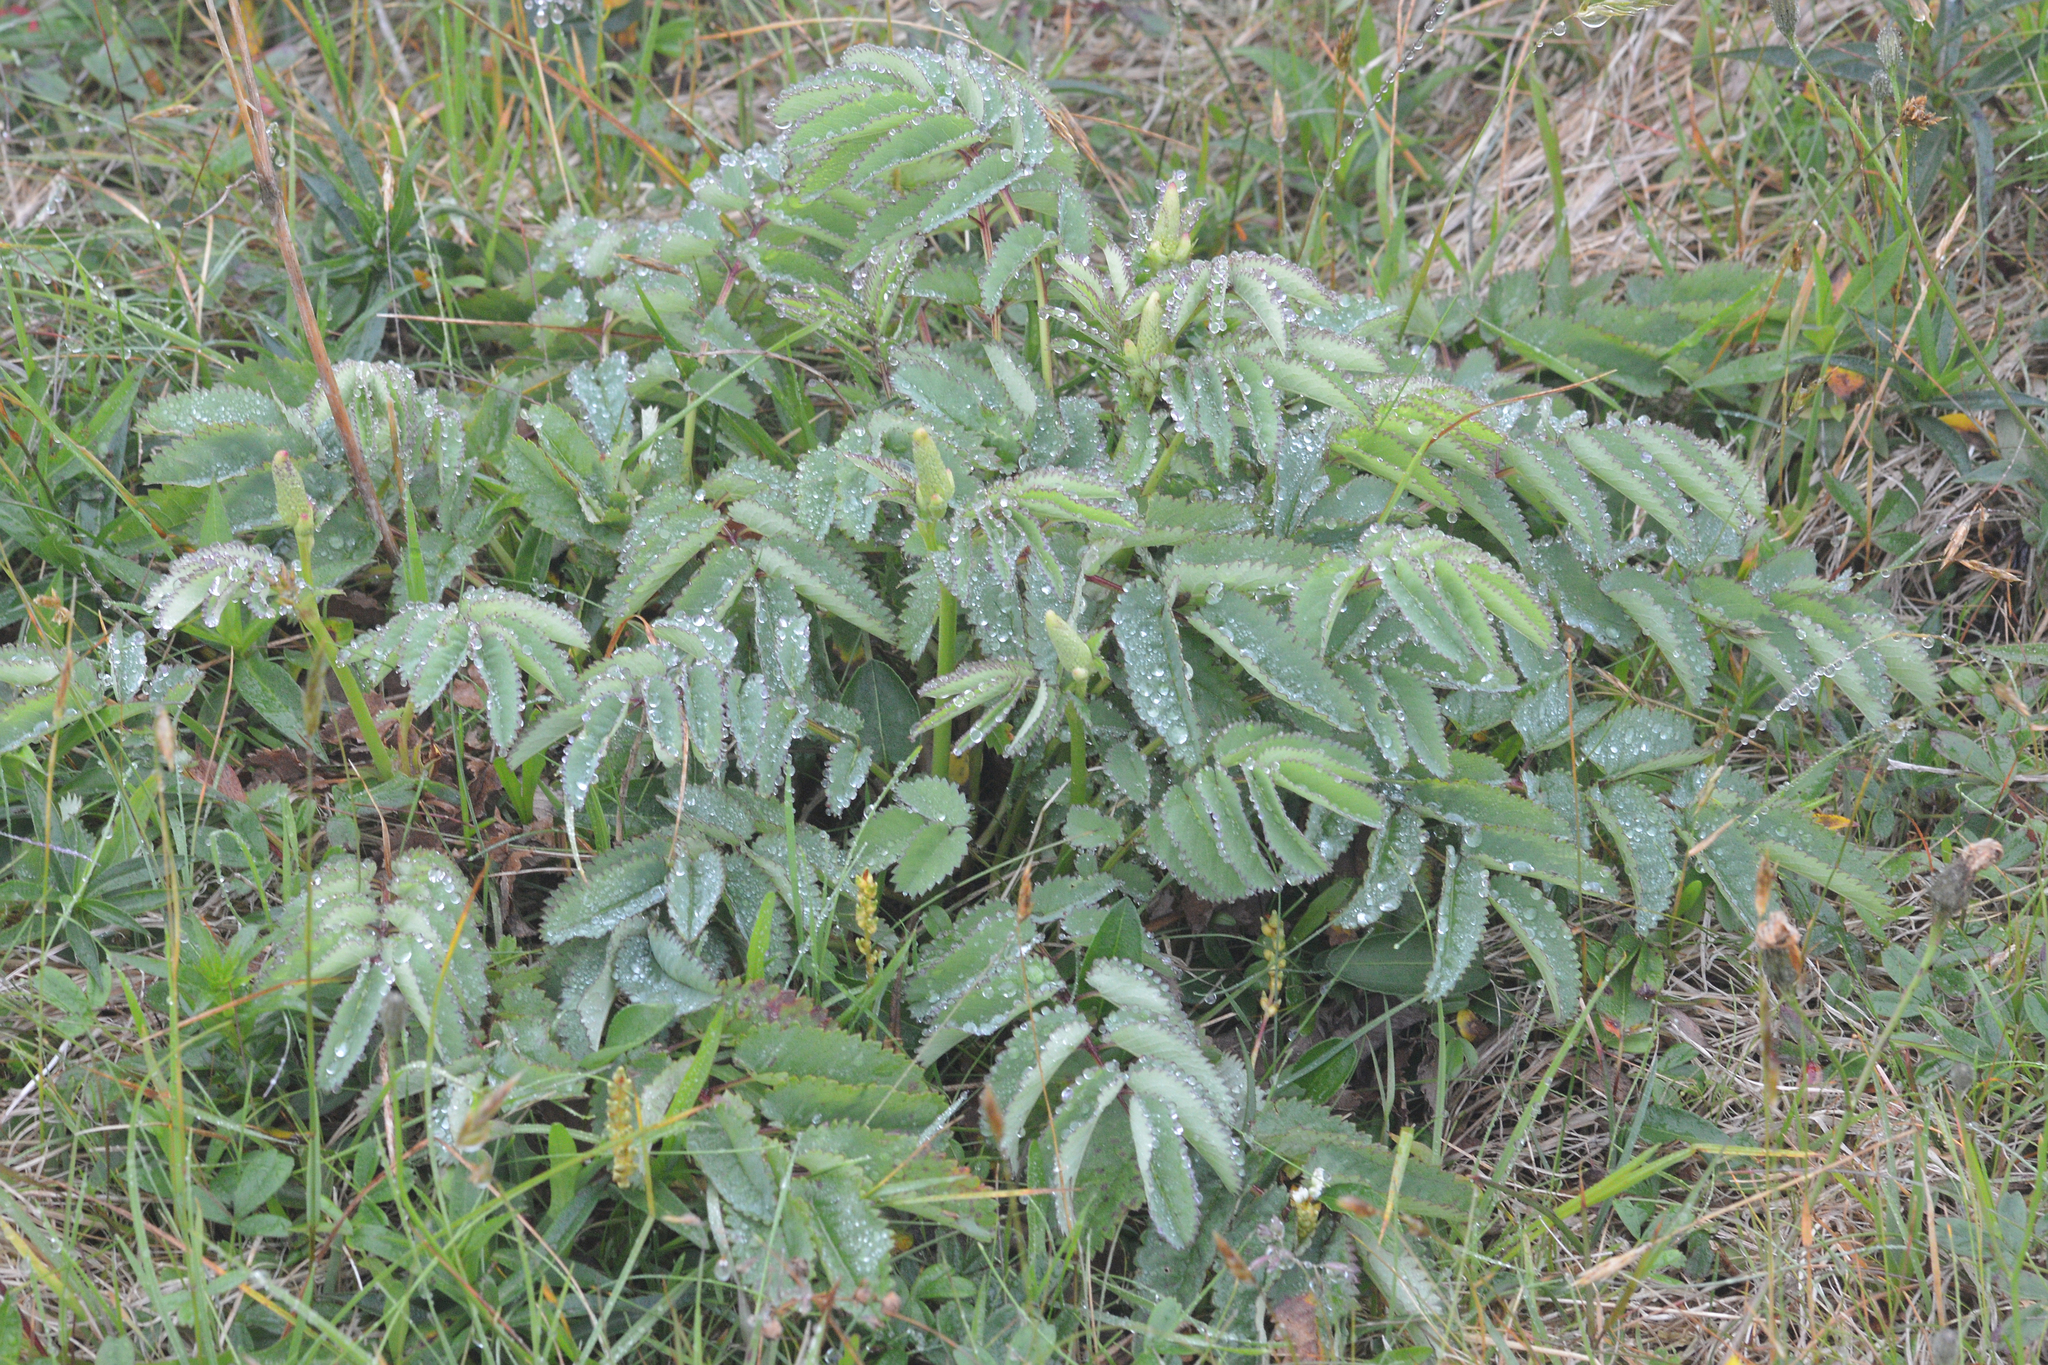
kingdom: Plantae
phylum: Tracheophyta
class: Magnoliopsida
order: Rosales
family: Rosaceae
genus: Sanguisorba
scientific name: Sanguisorba canadensis
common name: White burnet
